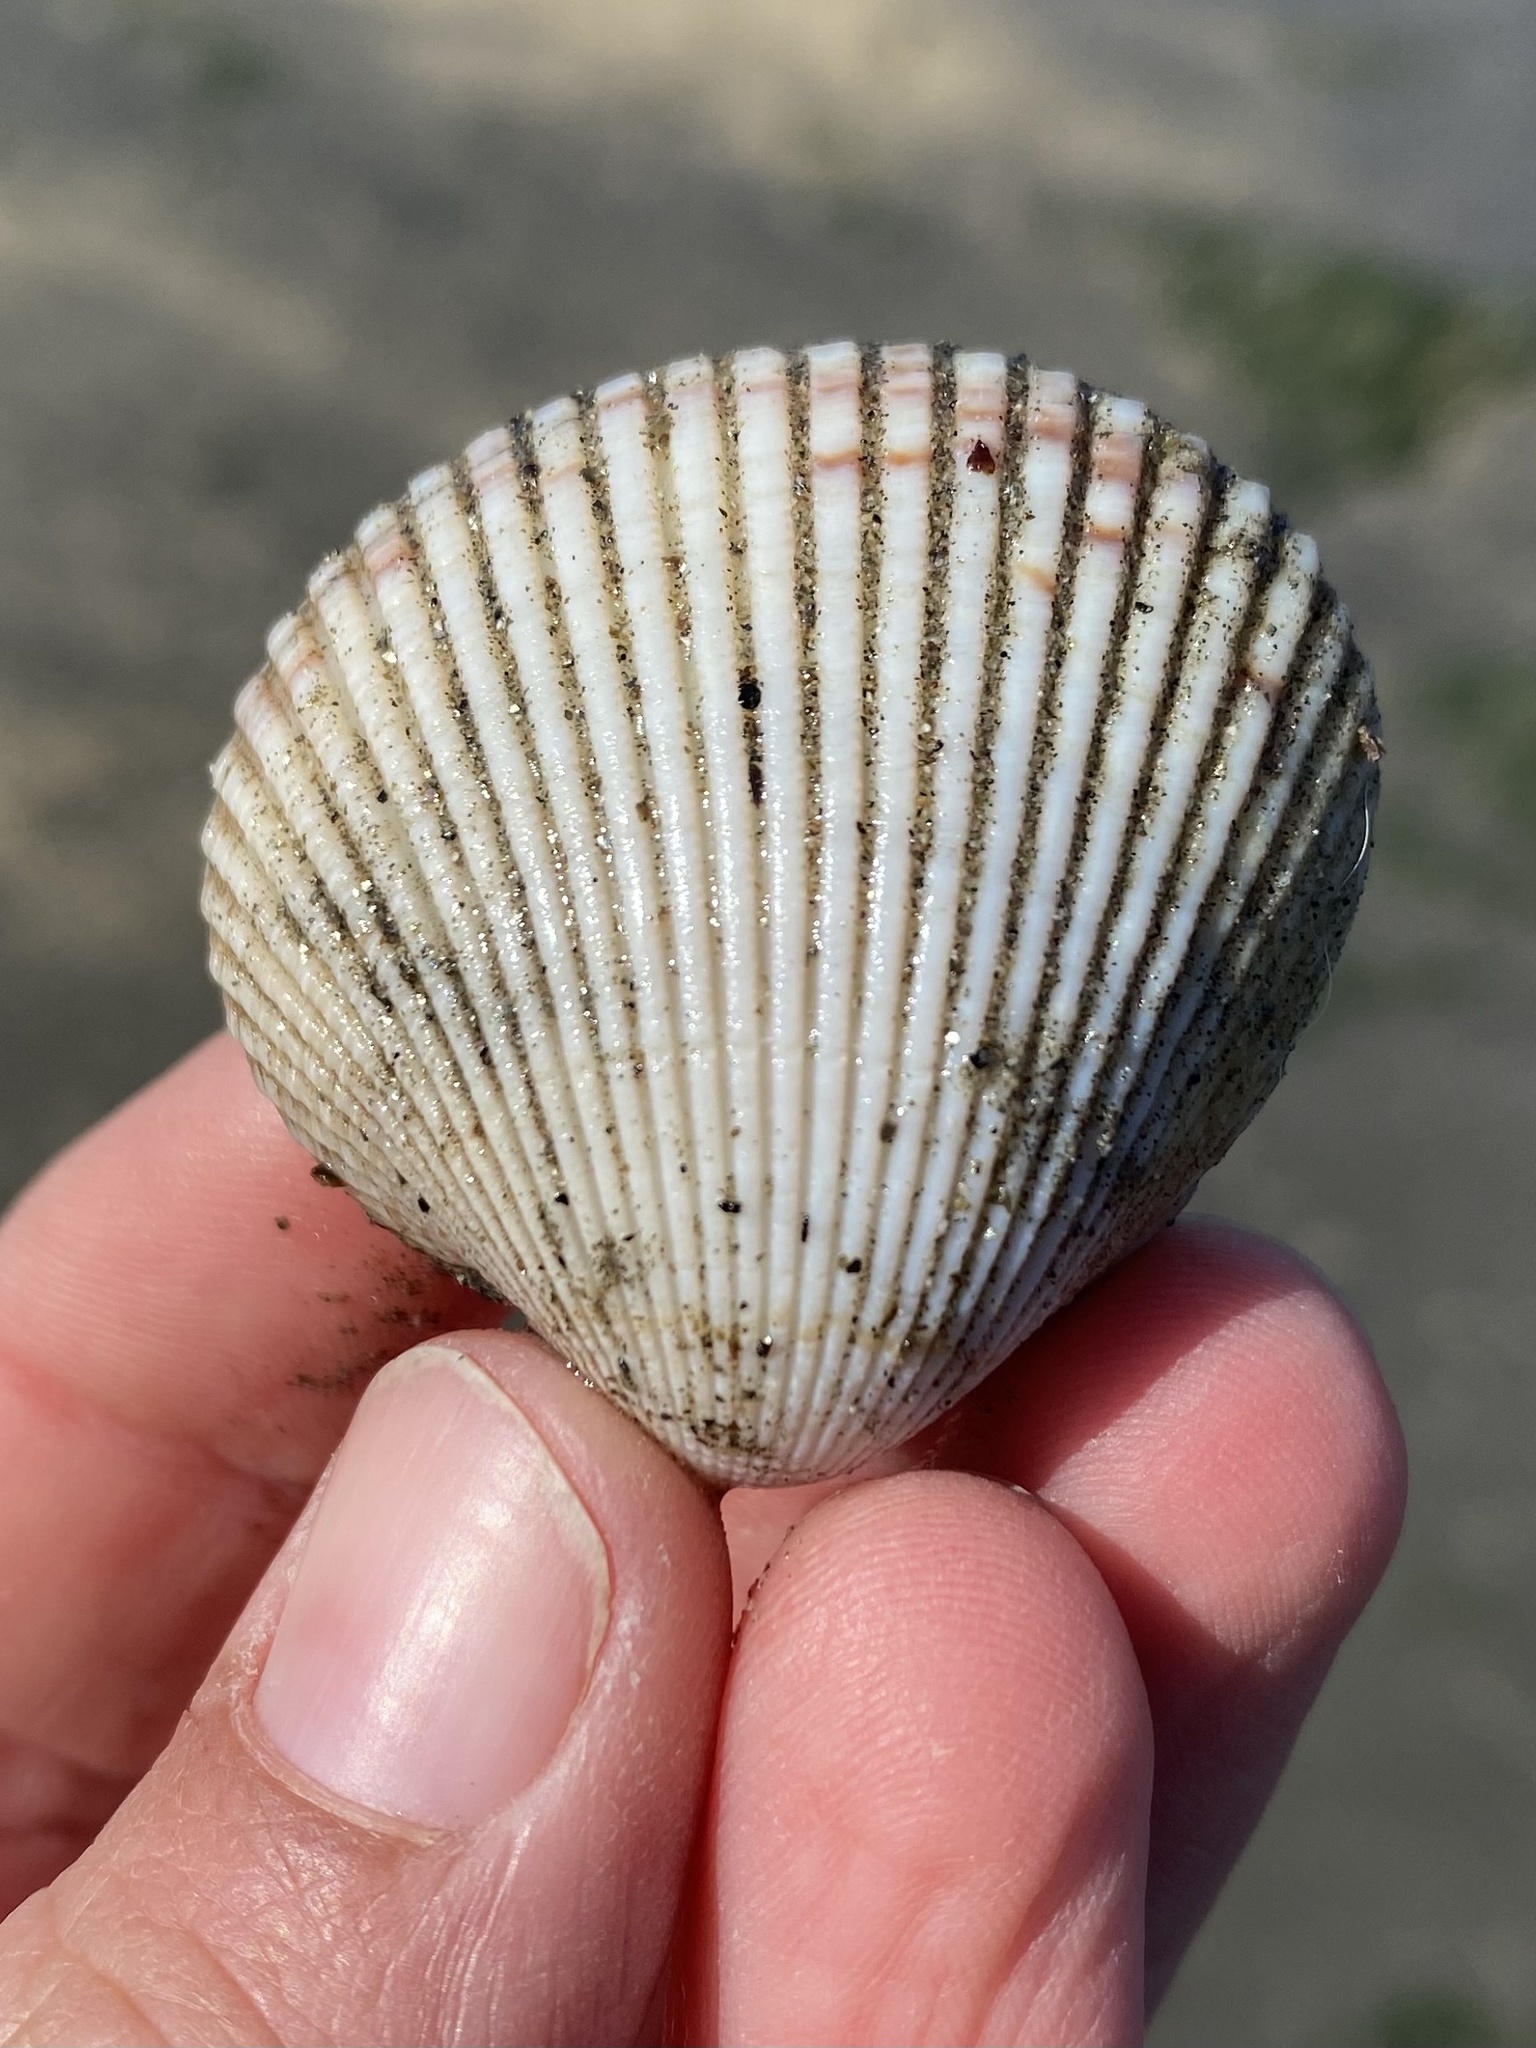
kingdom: Animalia
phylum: Mollusca
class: Bivalvia
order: Cardiida
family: Cardiidae
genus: Clinocardium
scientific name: Clinocardium nuttallii
